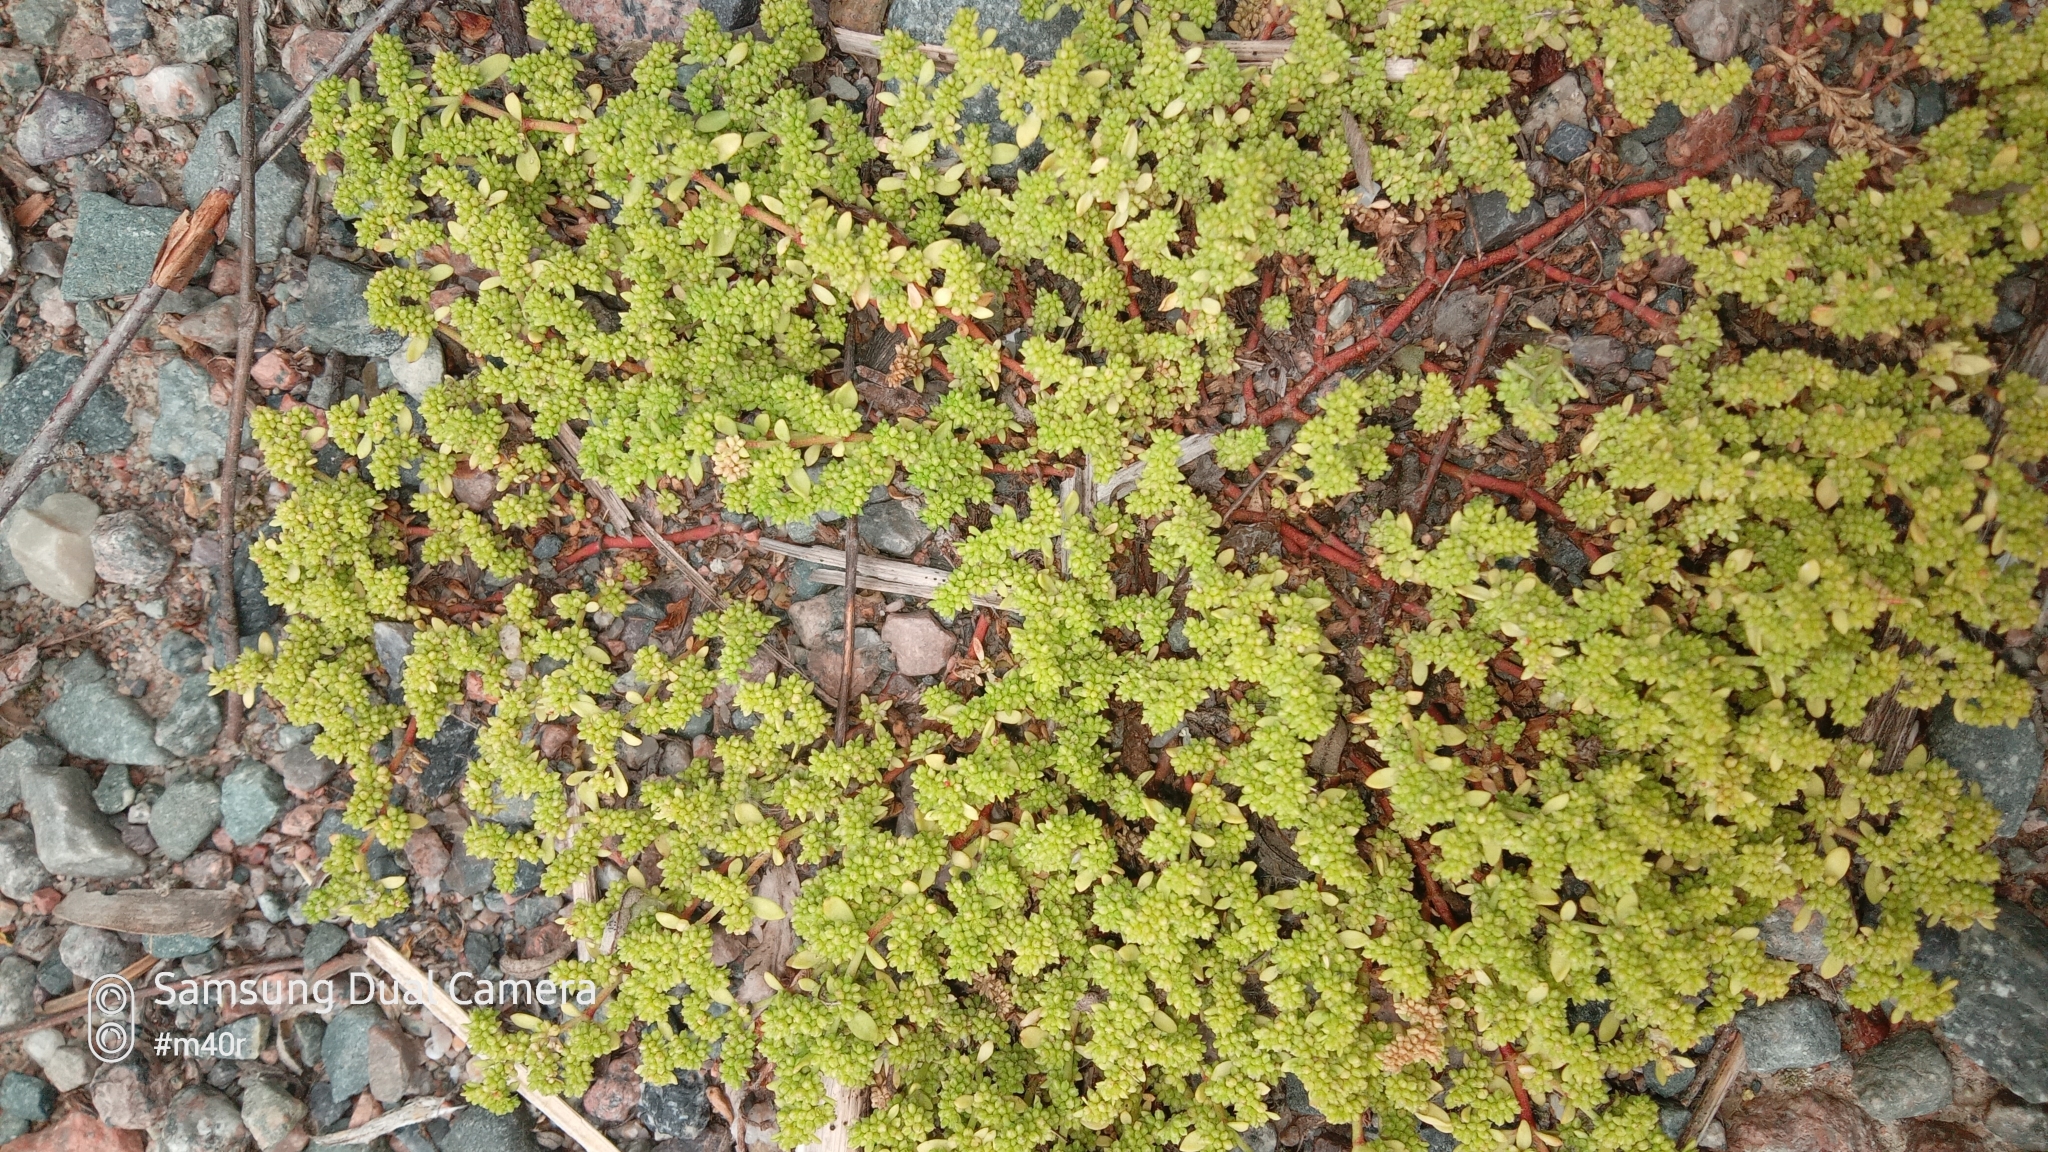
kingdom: Plantae
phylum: Tracheophyta
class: Magnoliopsida
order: Caryophyllales
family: Caryophyllaceae
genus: Herniaria
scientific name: Herniaria glabra
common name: Smooth rupturewort
